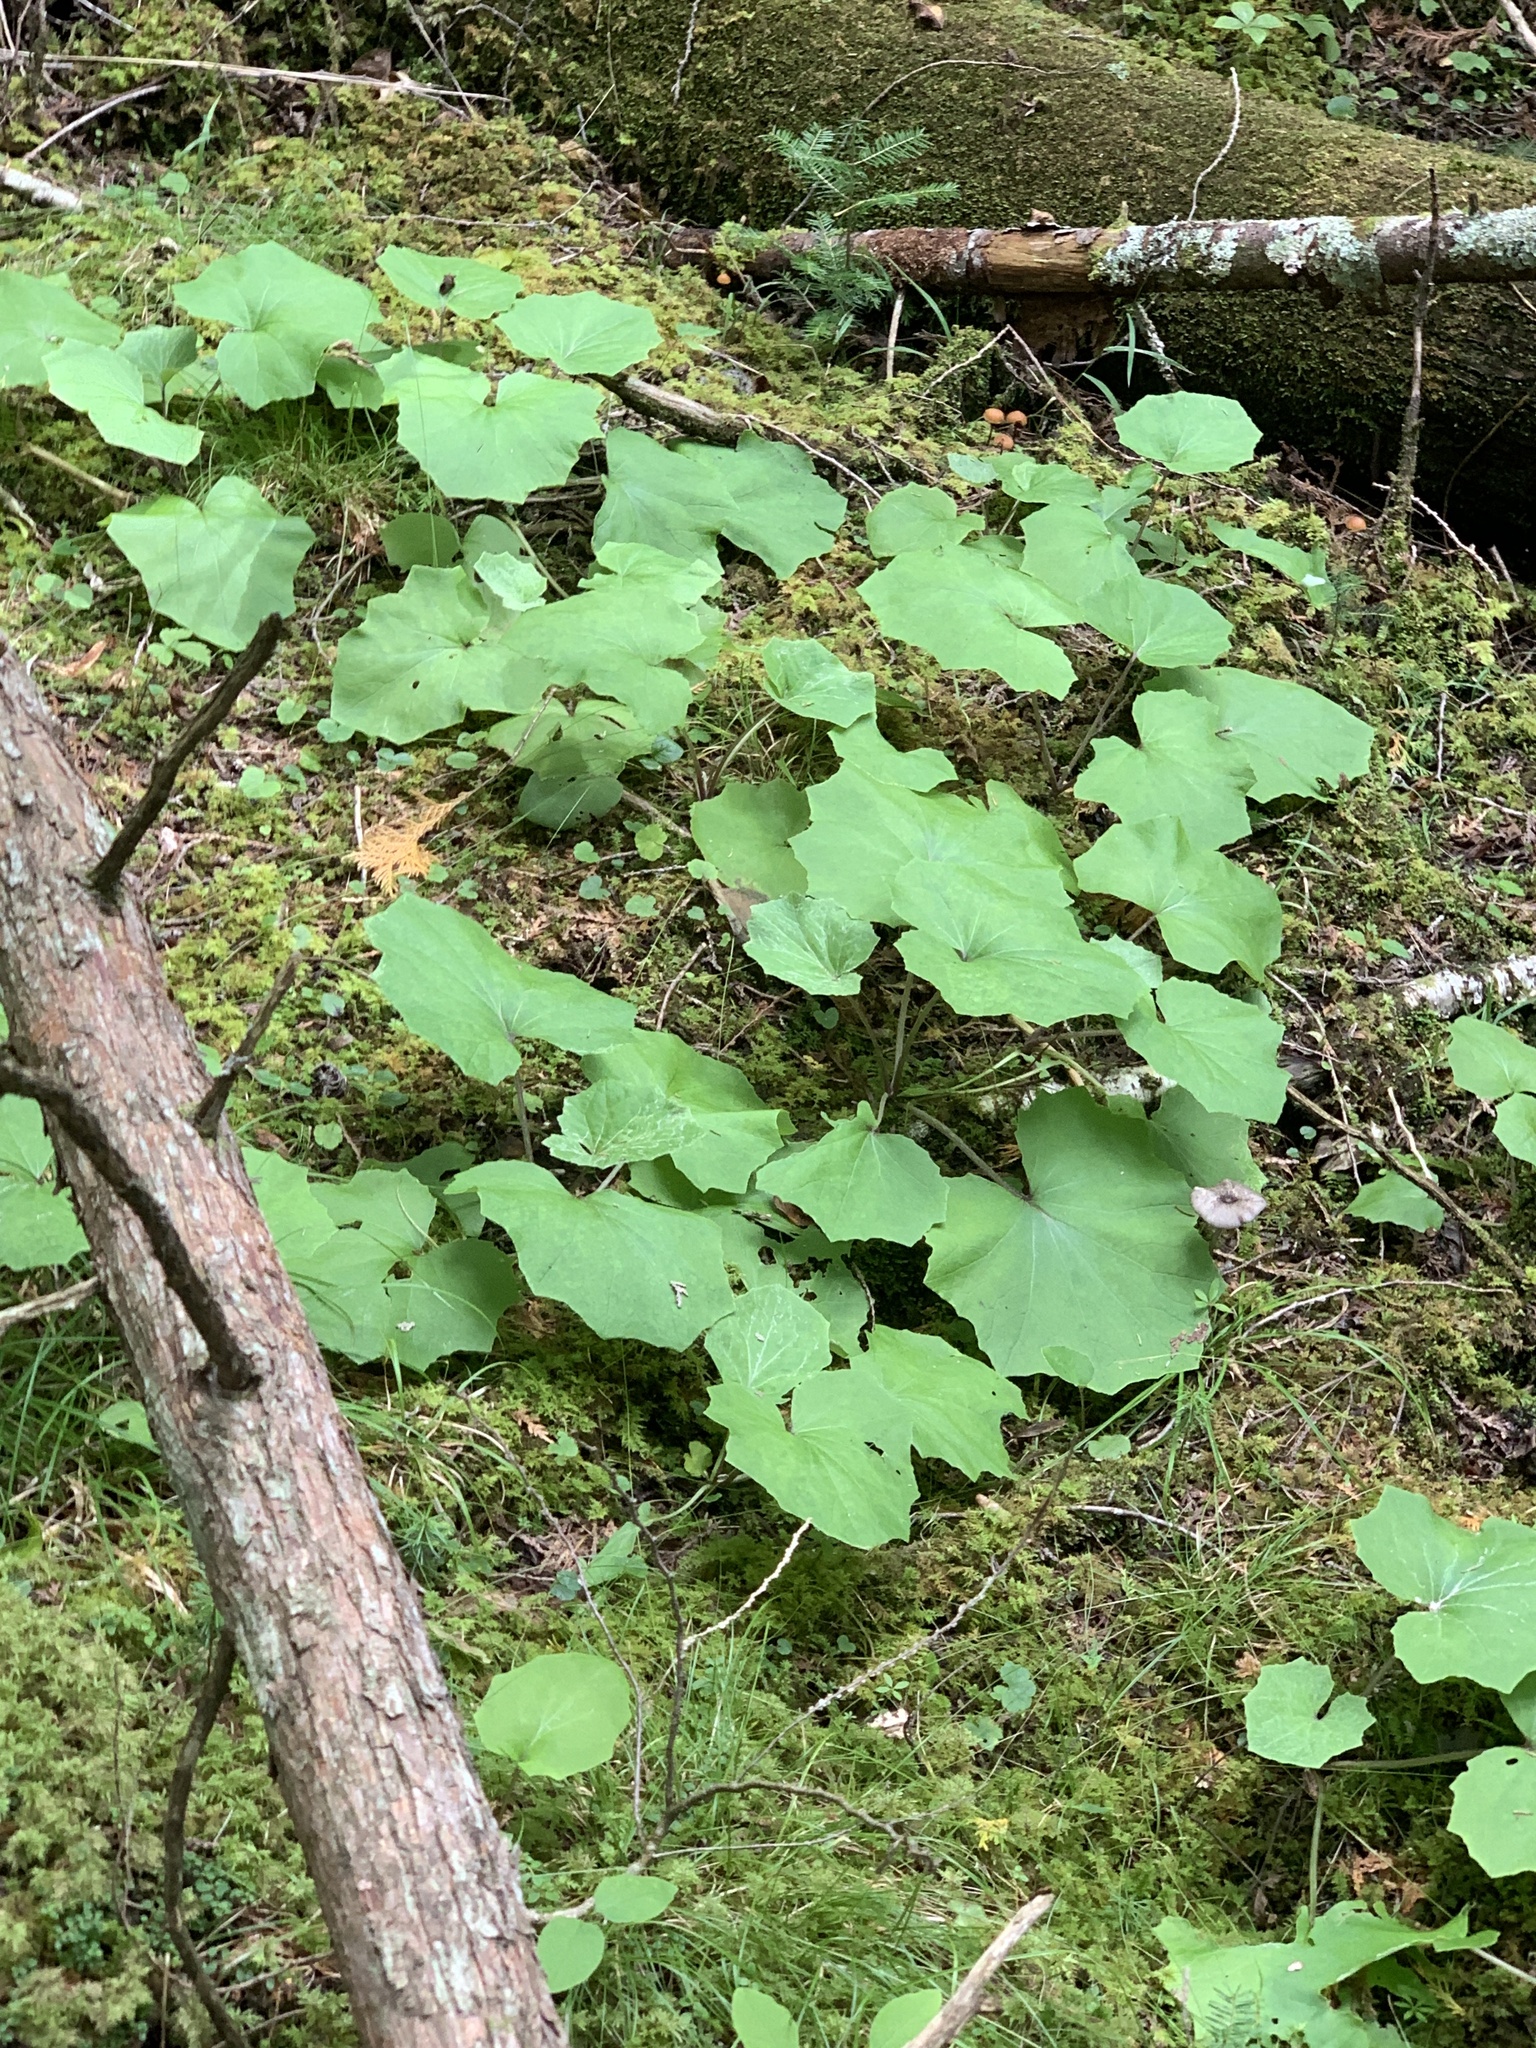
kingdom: Plantae
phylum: Tracheophyta
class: Magnoliopsida
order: Asterales
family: Asteraceae
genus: Tussilago
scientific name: Tussilago farfara
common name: Coltsfoot
